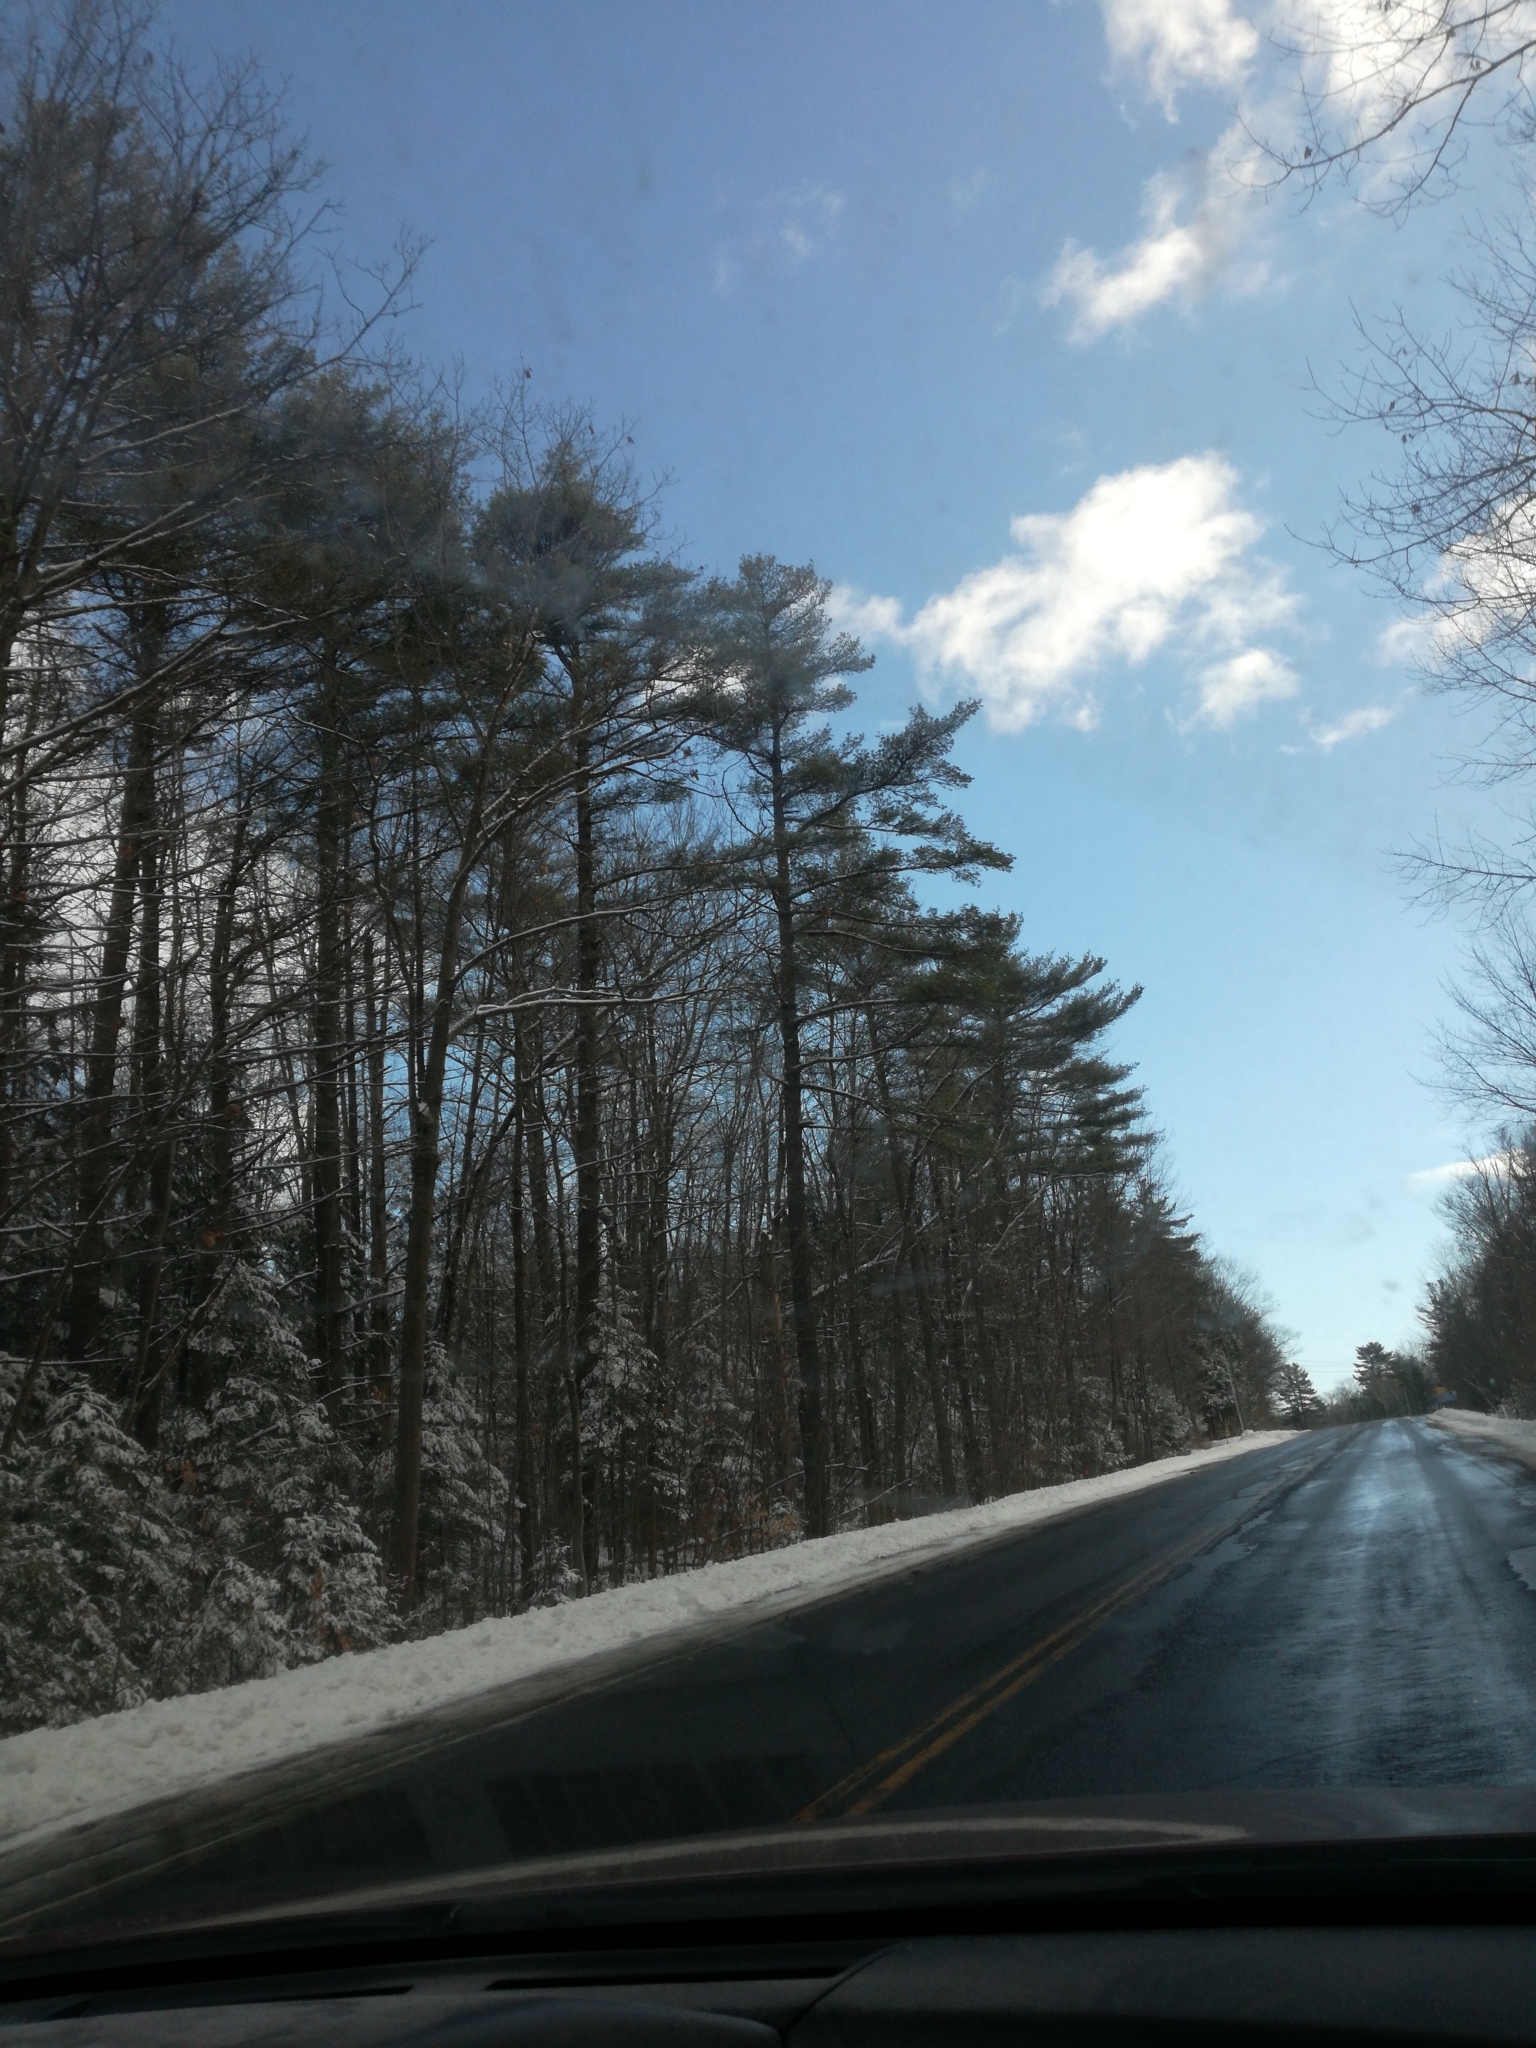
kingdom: Plantae
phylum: Tracheophyta
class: Pinopsida
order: Pinales
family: Pinaceae
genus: Pinus
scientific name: Pinus strobus
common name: Weymouth pine
